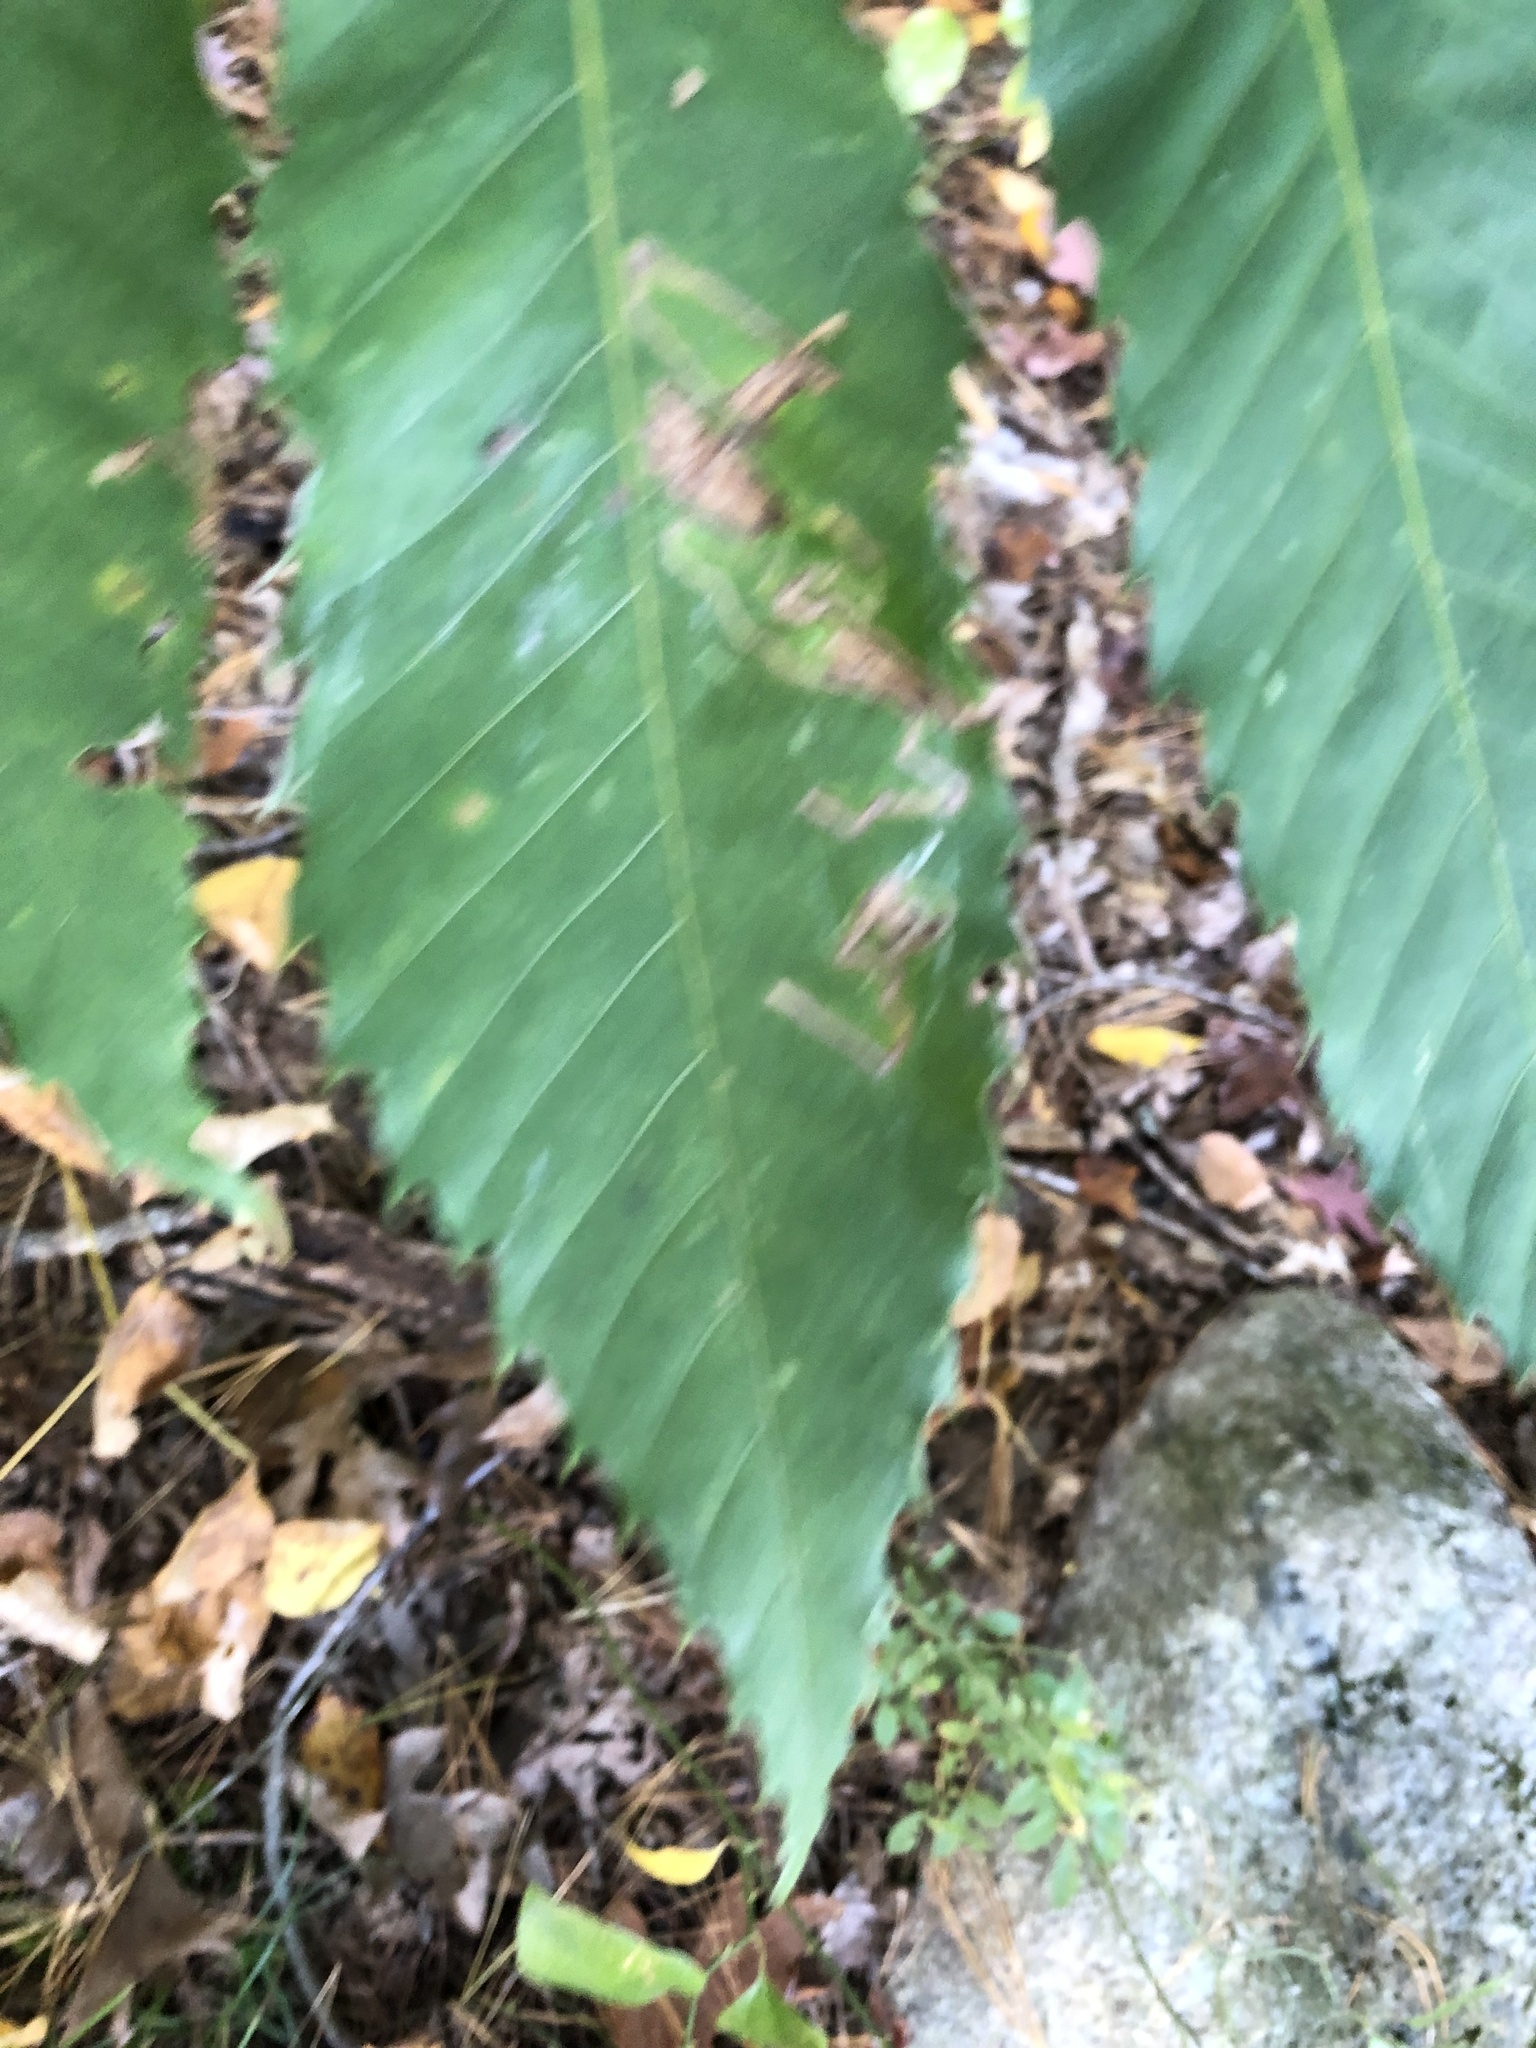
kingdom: Plantae
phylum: Tracheophyta
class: Magnoliopsida
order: Fagales
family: Fagaceae
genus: Castanea
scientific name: Castanea dentata
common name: American chestnut
